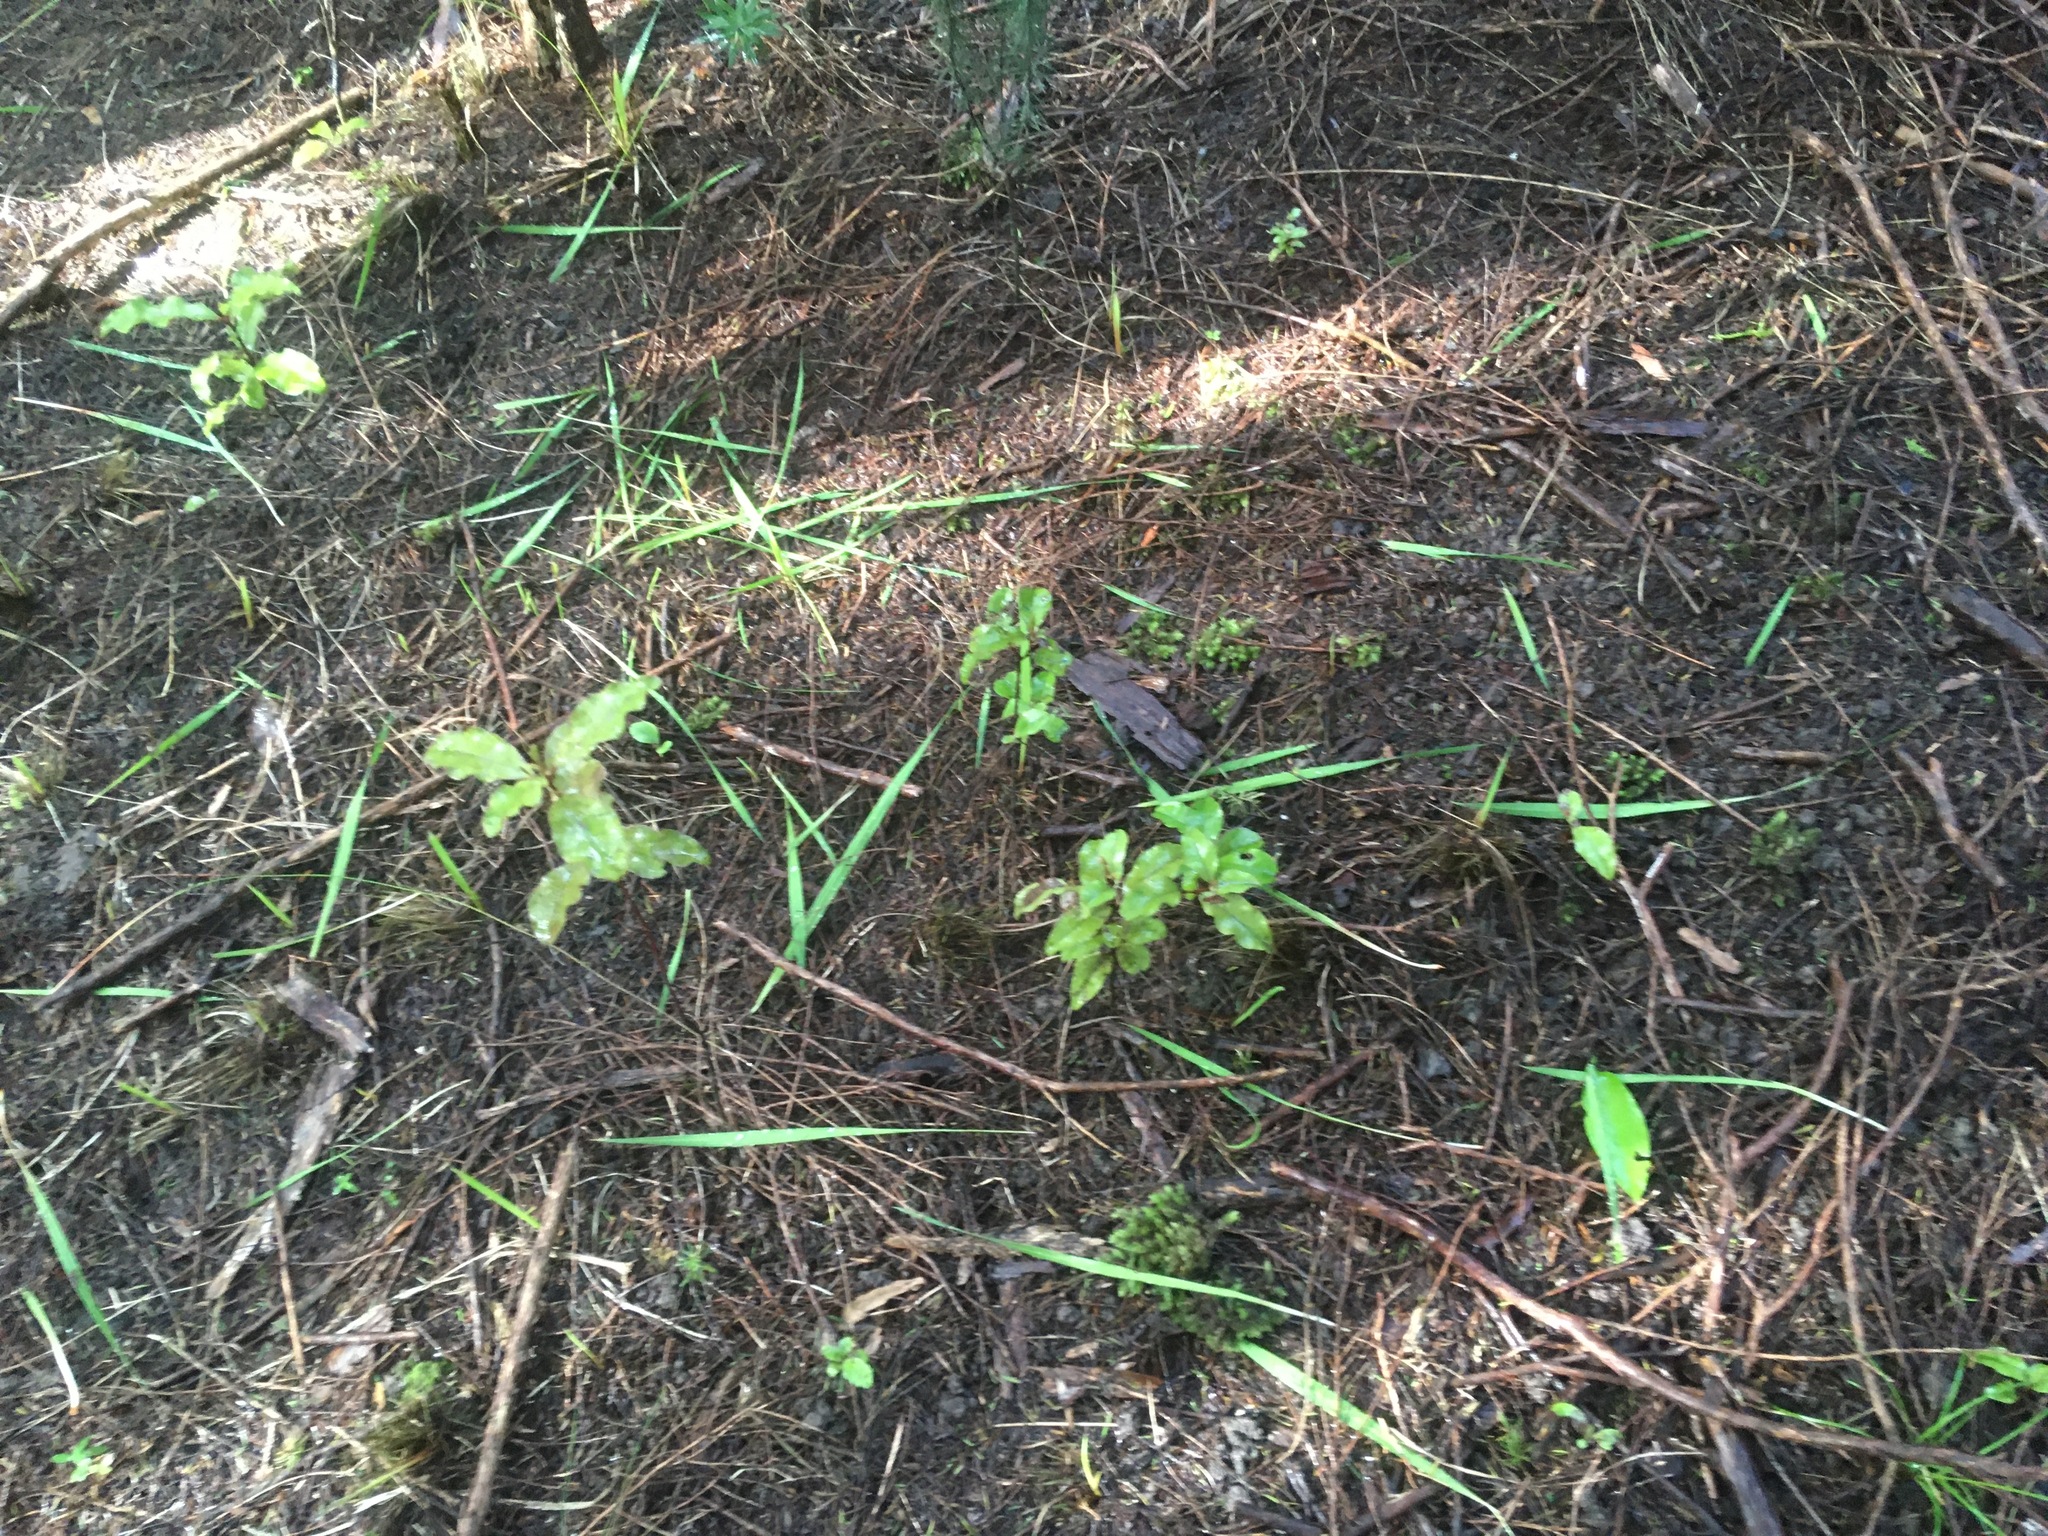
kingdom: Plantae
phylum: Bryophyta
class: Bryopsida
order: Dicranales
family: Leucobryaceae
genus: Leucobryum
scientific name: Leucobryum javense
